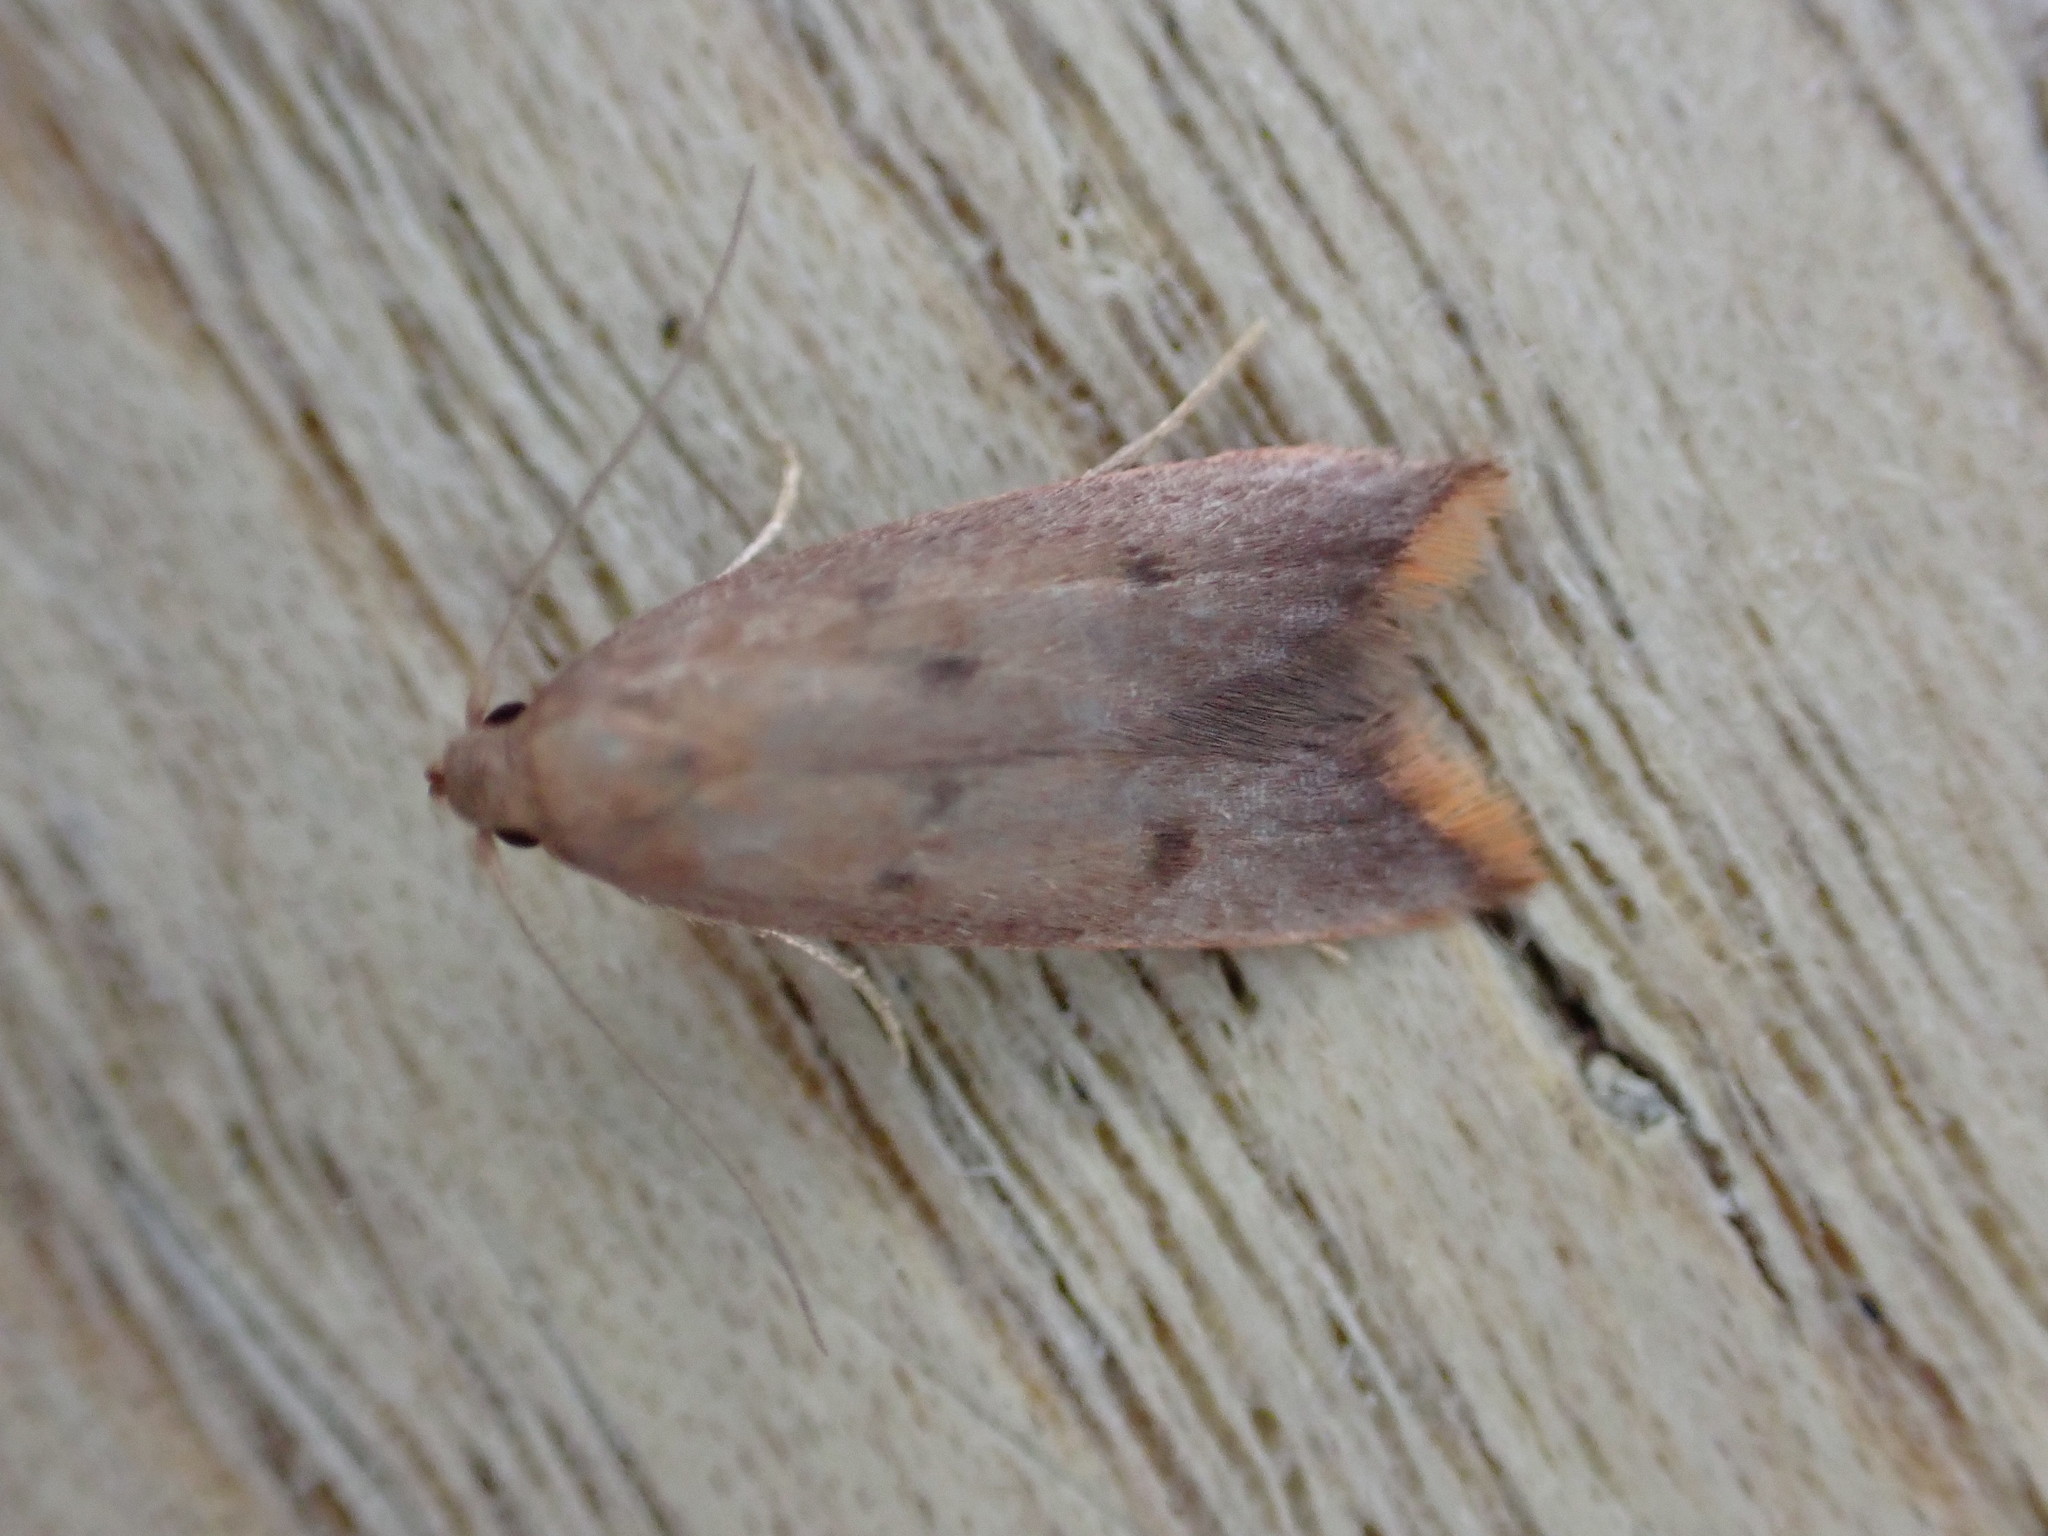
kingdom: Animalia
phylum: Arthropoda
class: Insecta
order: Lepidoptera
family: Oecophoridae
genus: Tachystola
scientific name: Tachystola acroxantha
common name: Ruddy streak
